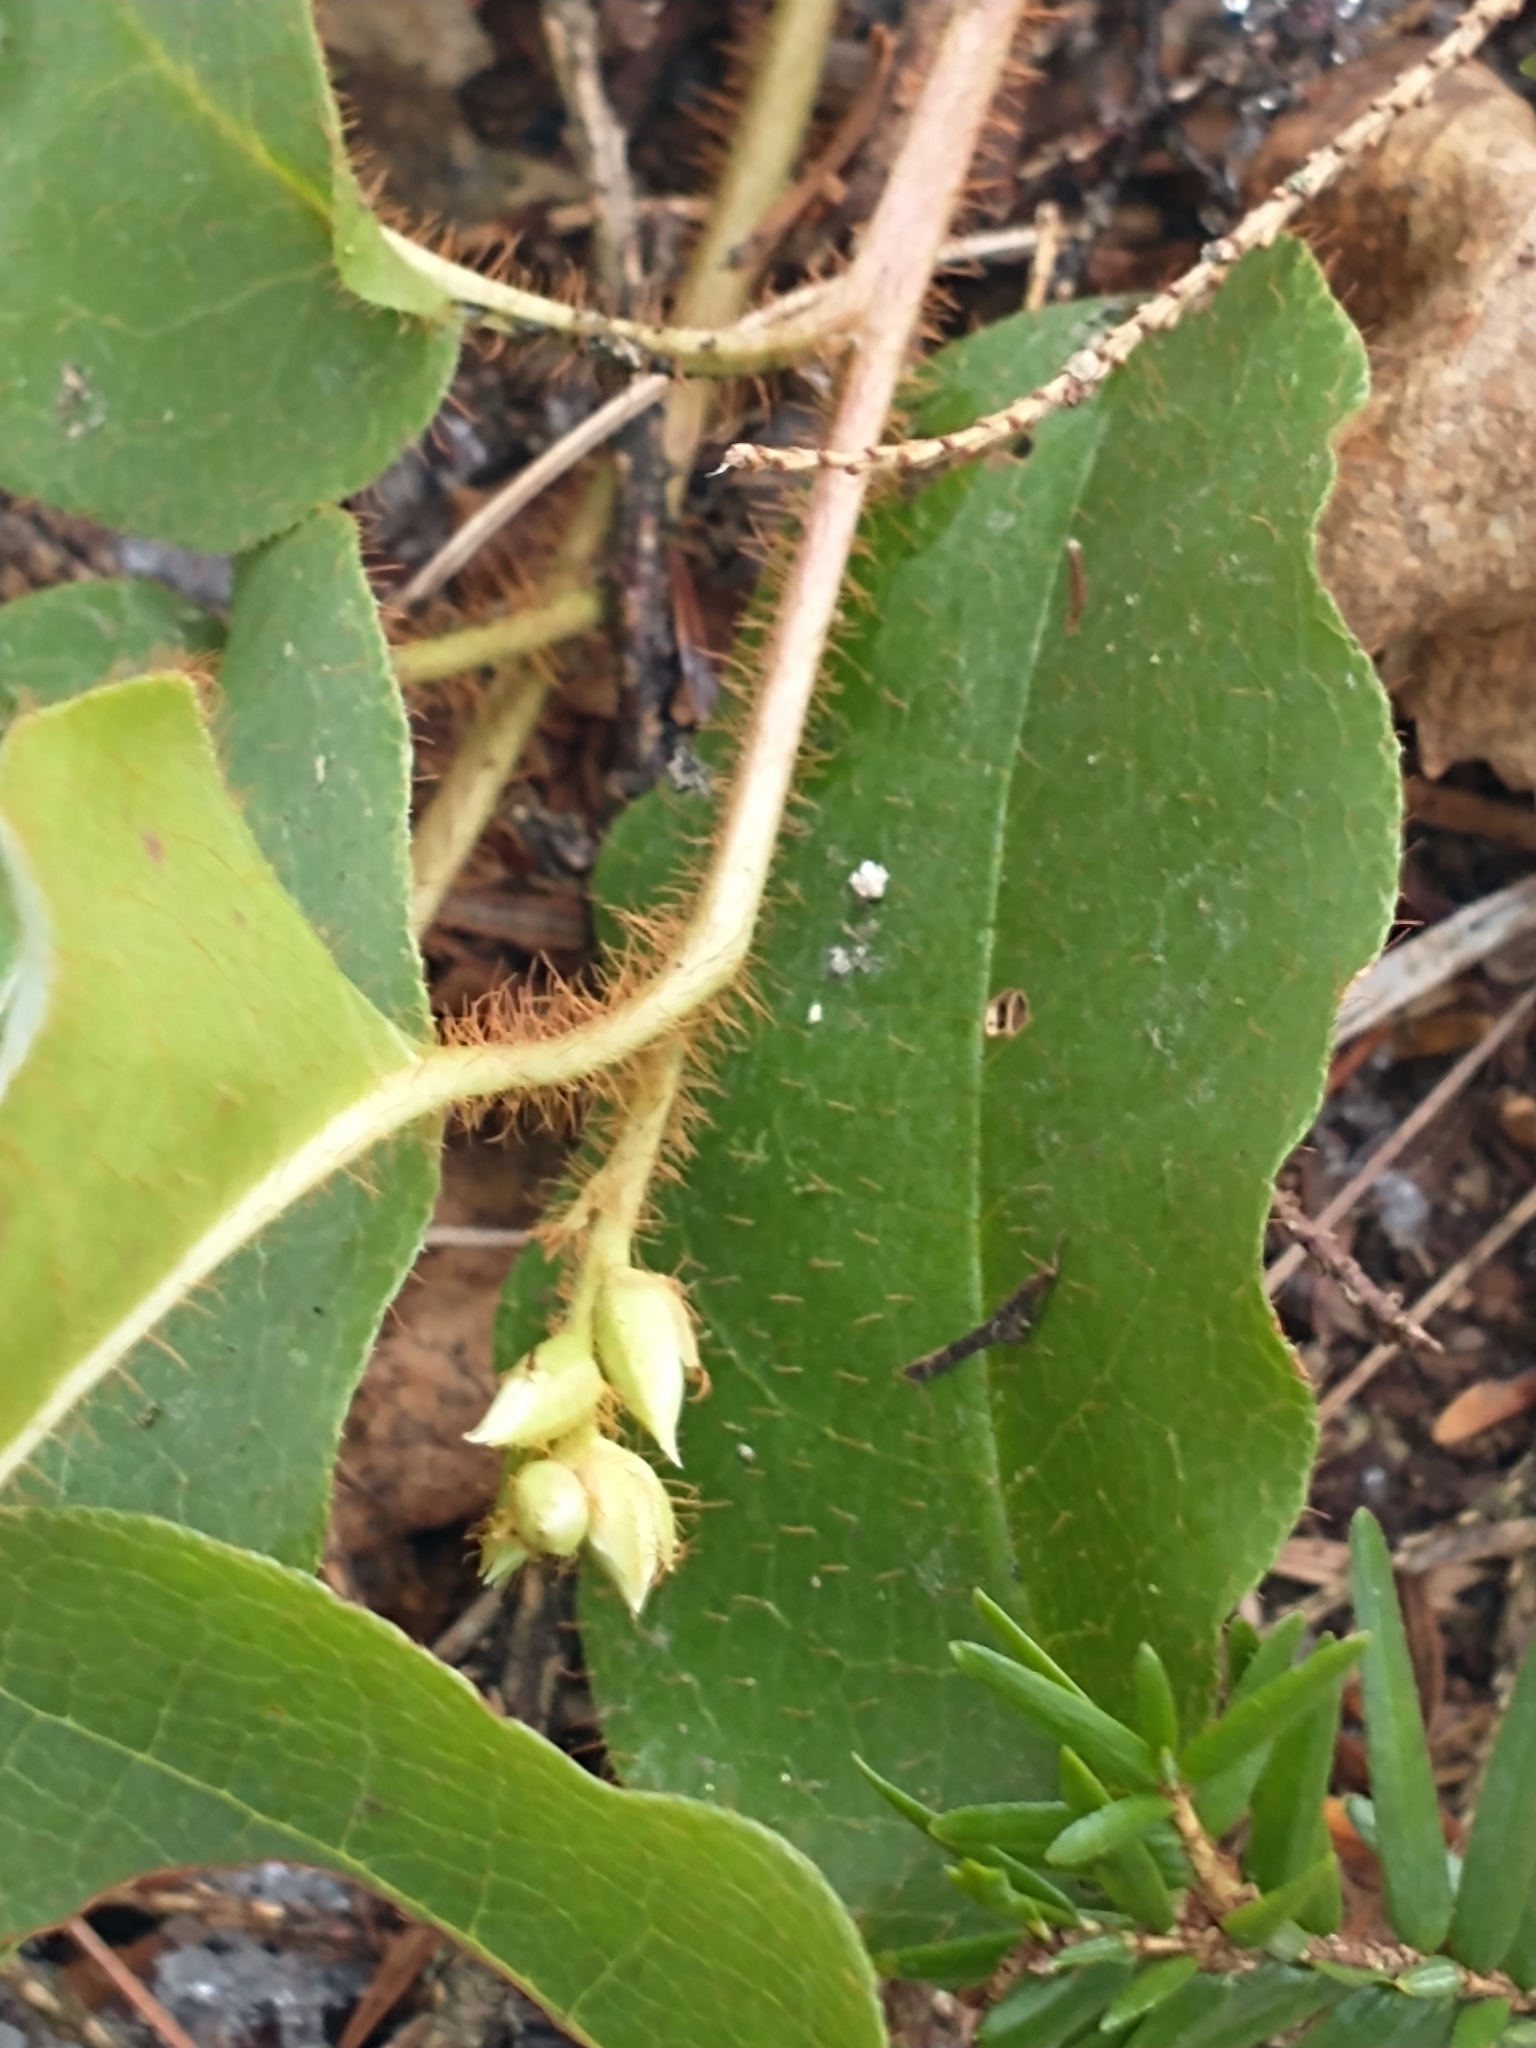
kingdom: Plantae
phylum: Tracheophyta
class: Magnoliopsida
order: Ericales
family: Ericaceae
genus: Epigaea
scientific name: Epigaea repens
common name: Gravelroot
